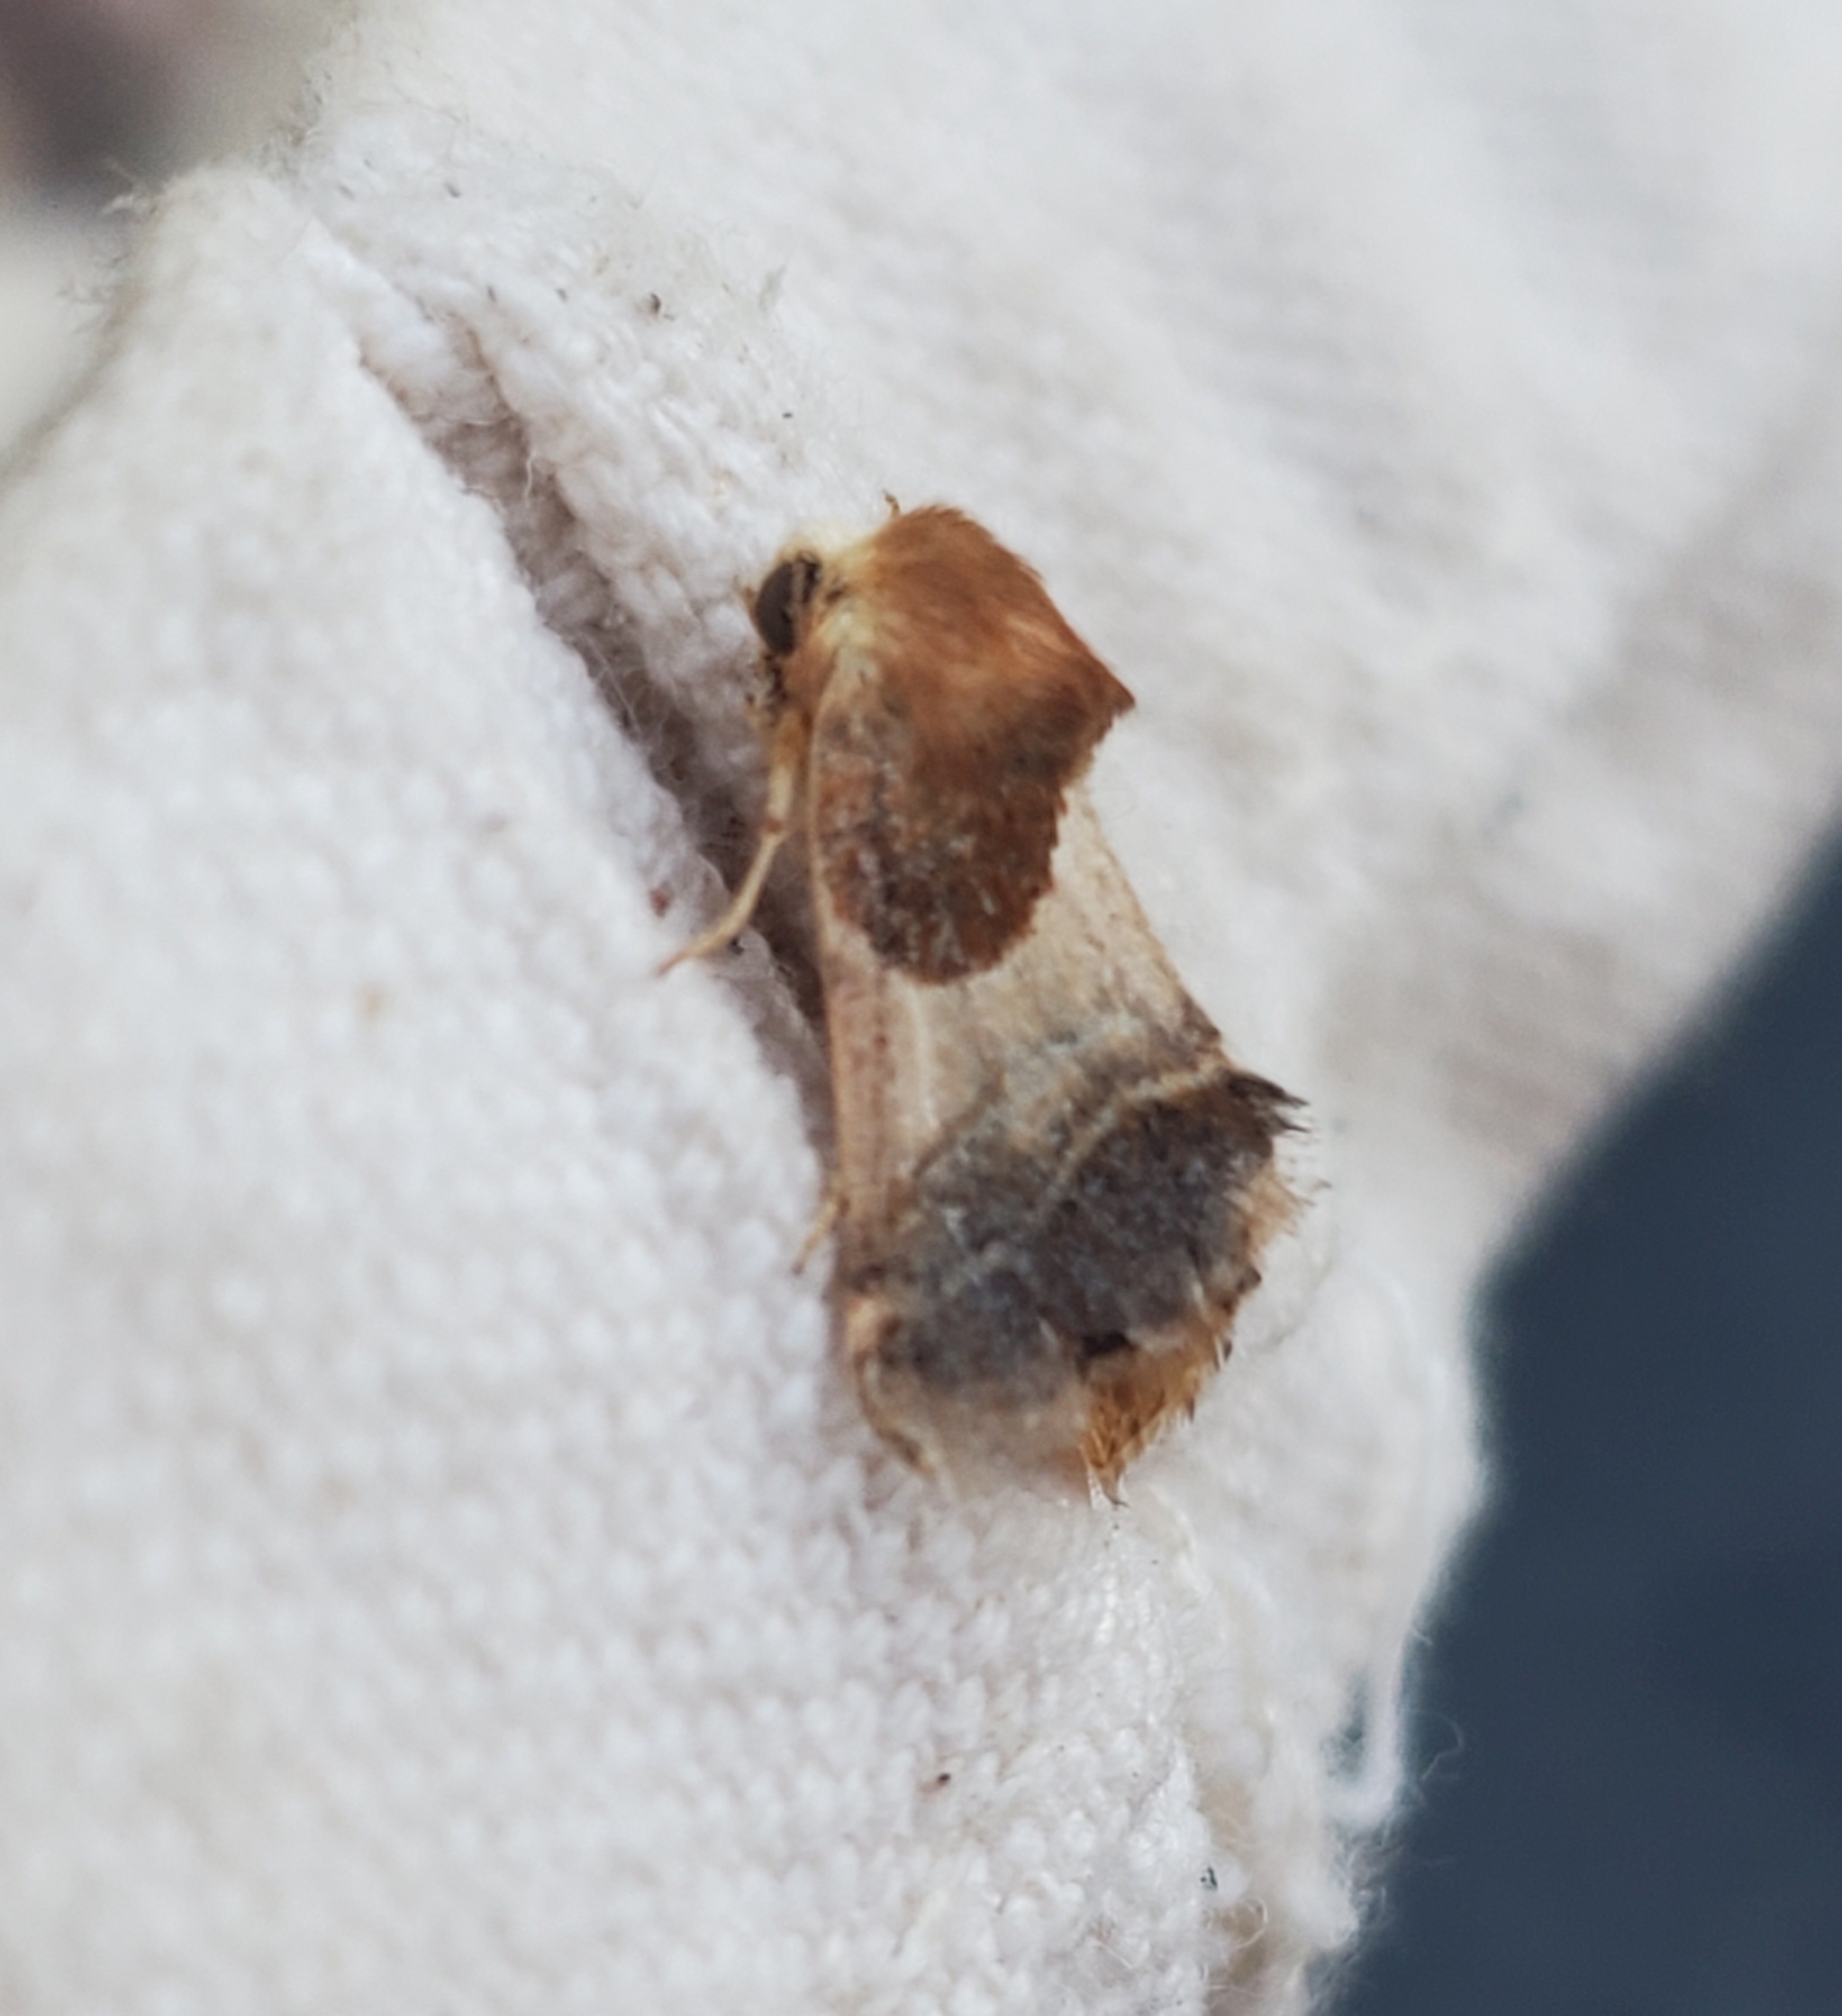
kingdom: Animalia
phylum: Arthropoda
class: Insecta
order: Lepidoptera
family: Noctuidae
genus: Schinia
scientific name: Schinia arcigera
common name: Arcigera flower moth
